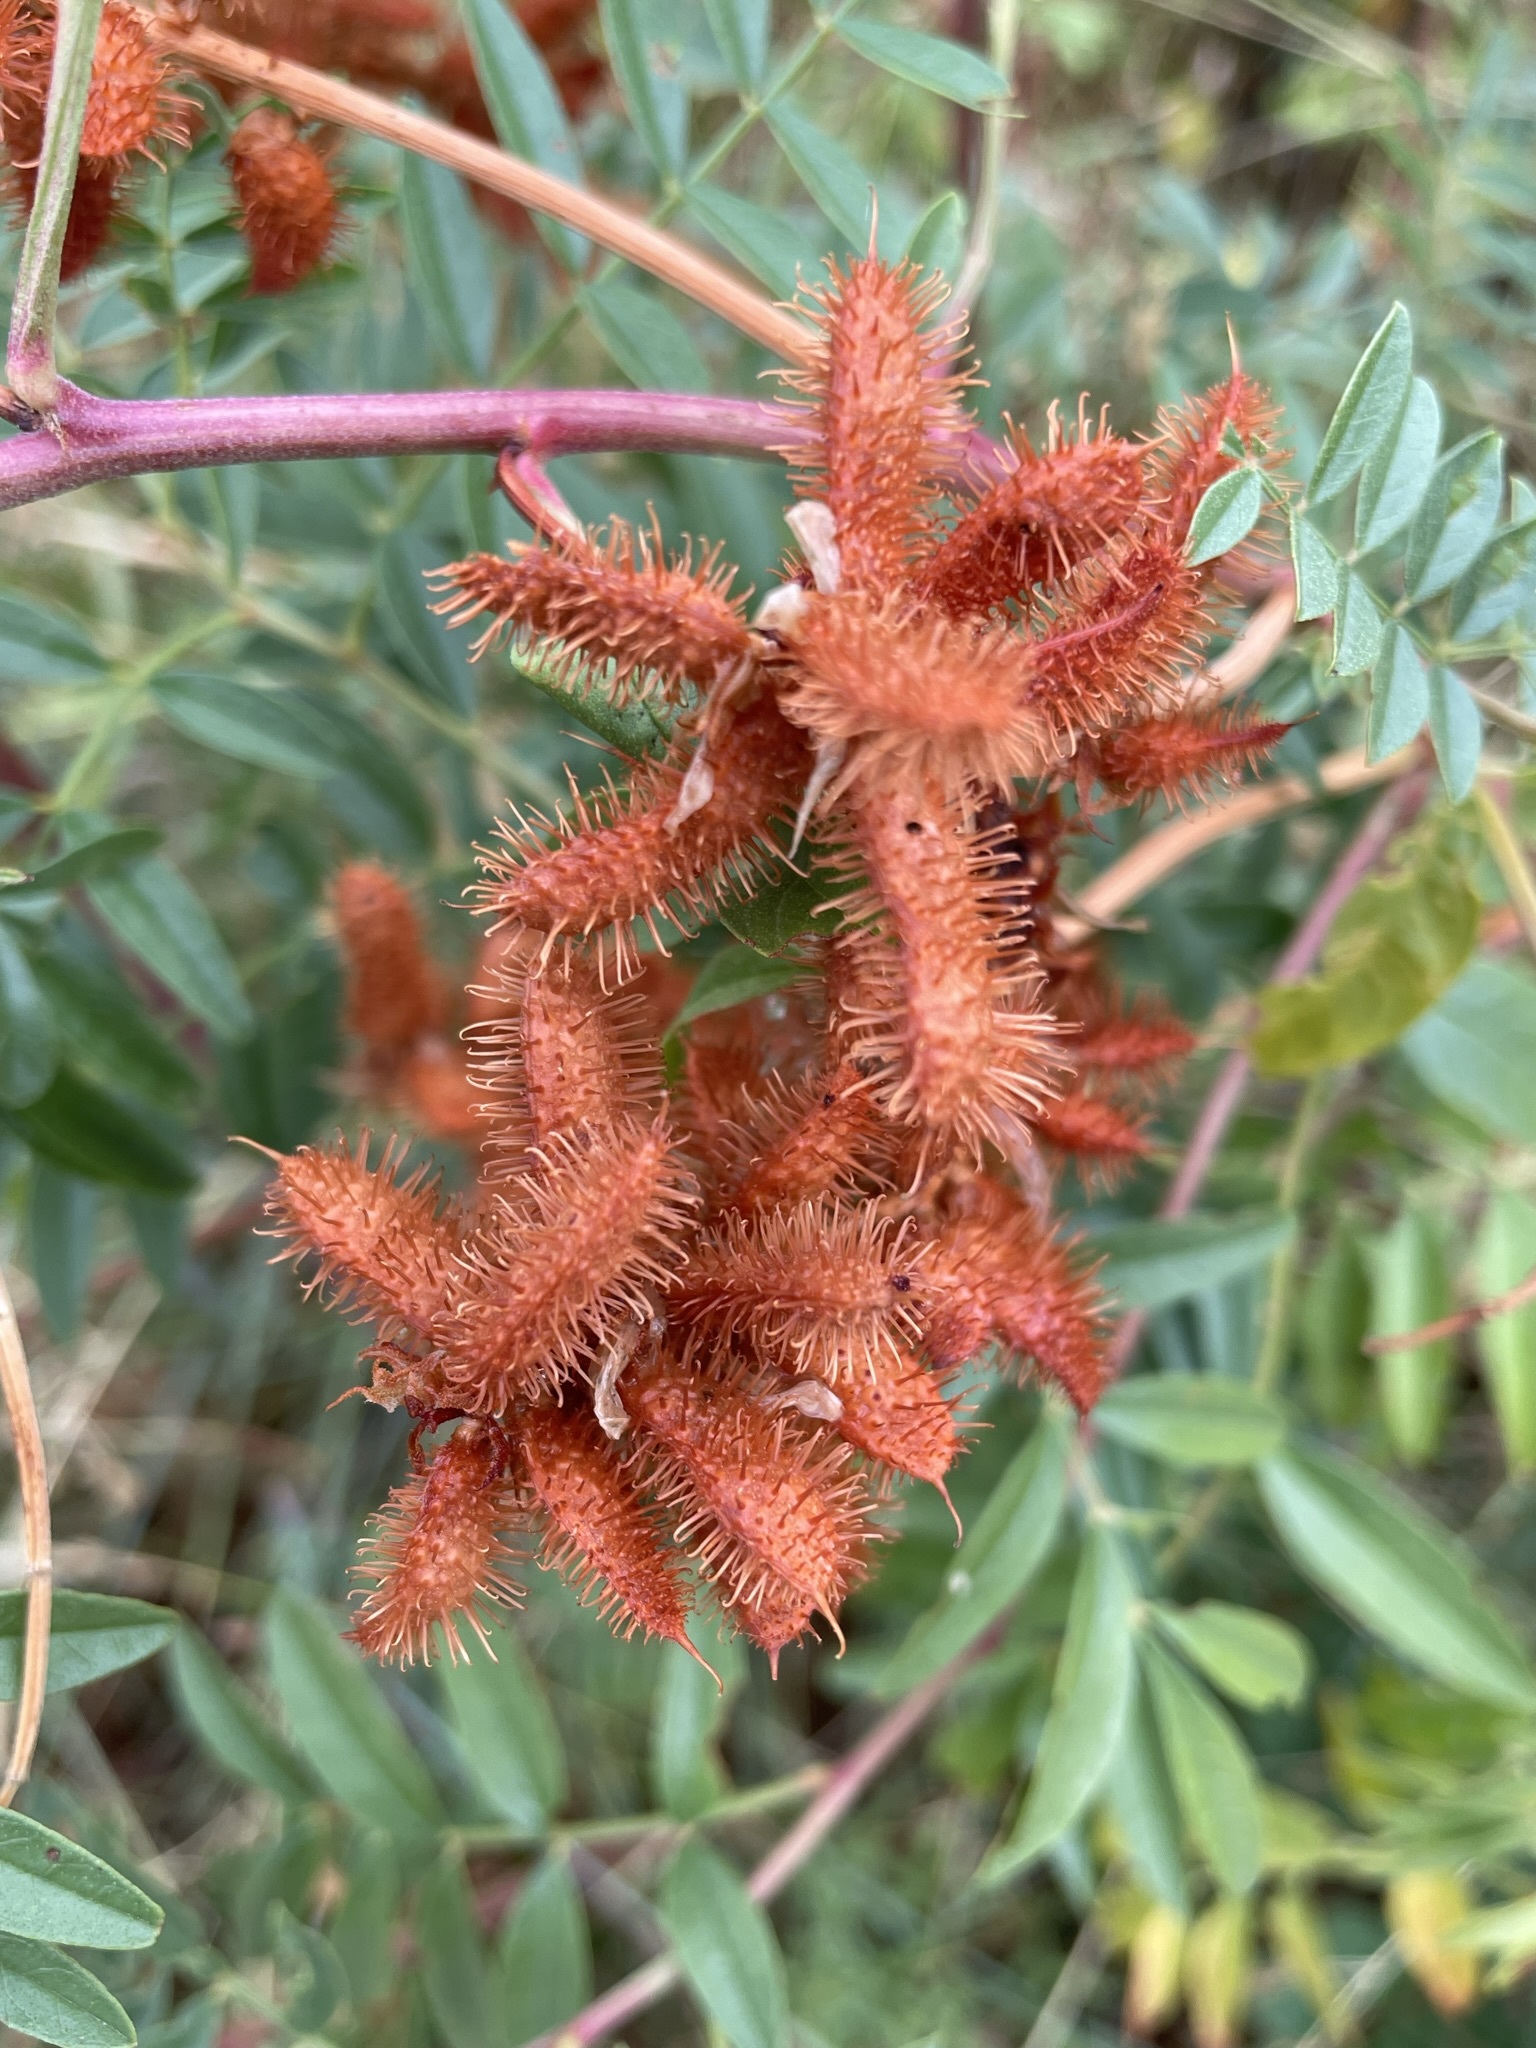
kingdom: Plantae
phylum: Tracheophyta
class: Magnoliopsida
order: Fabales
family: Fabaceae
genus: Glycyrrhiza
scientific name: Glycyrrhiza lepidota
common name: American liquorice
